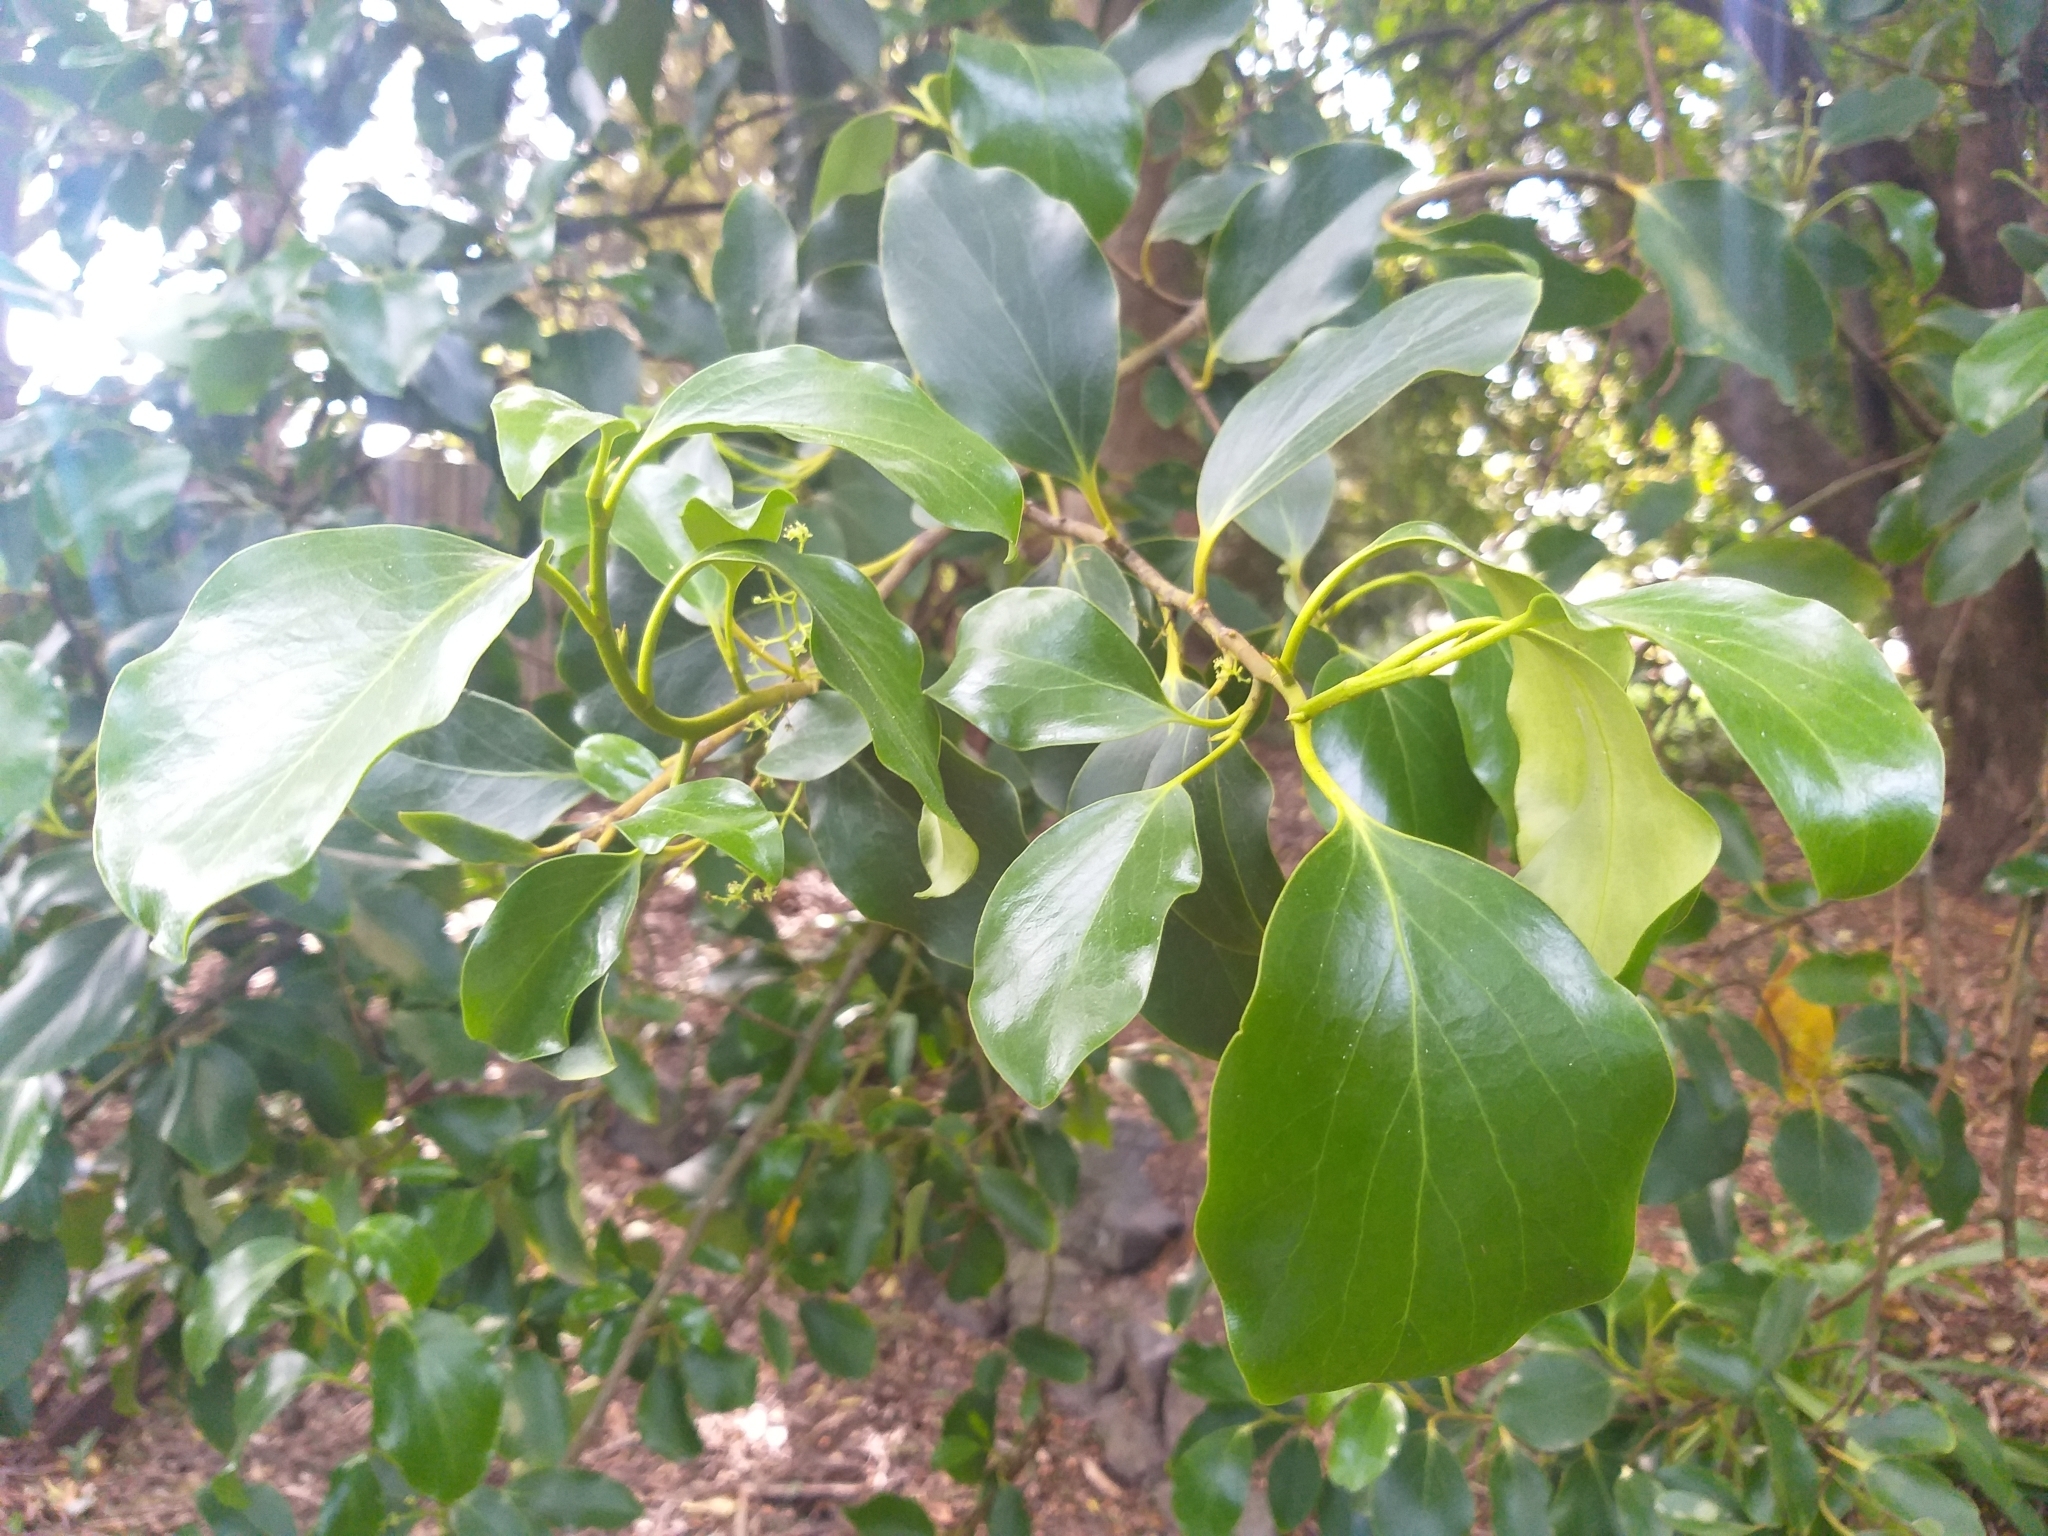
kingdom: Plantae
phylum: Tracheophyta
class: Magnoliopsida
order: Apiales
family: Griseliniaceae
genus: Griselinia
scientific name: Griselinia littoralis
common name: New zealand broadleaf
